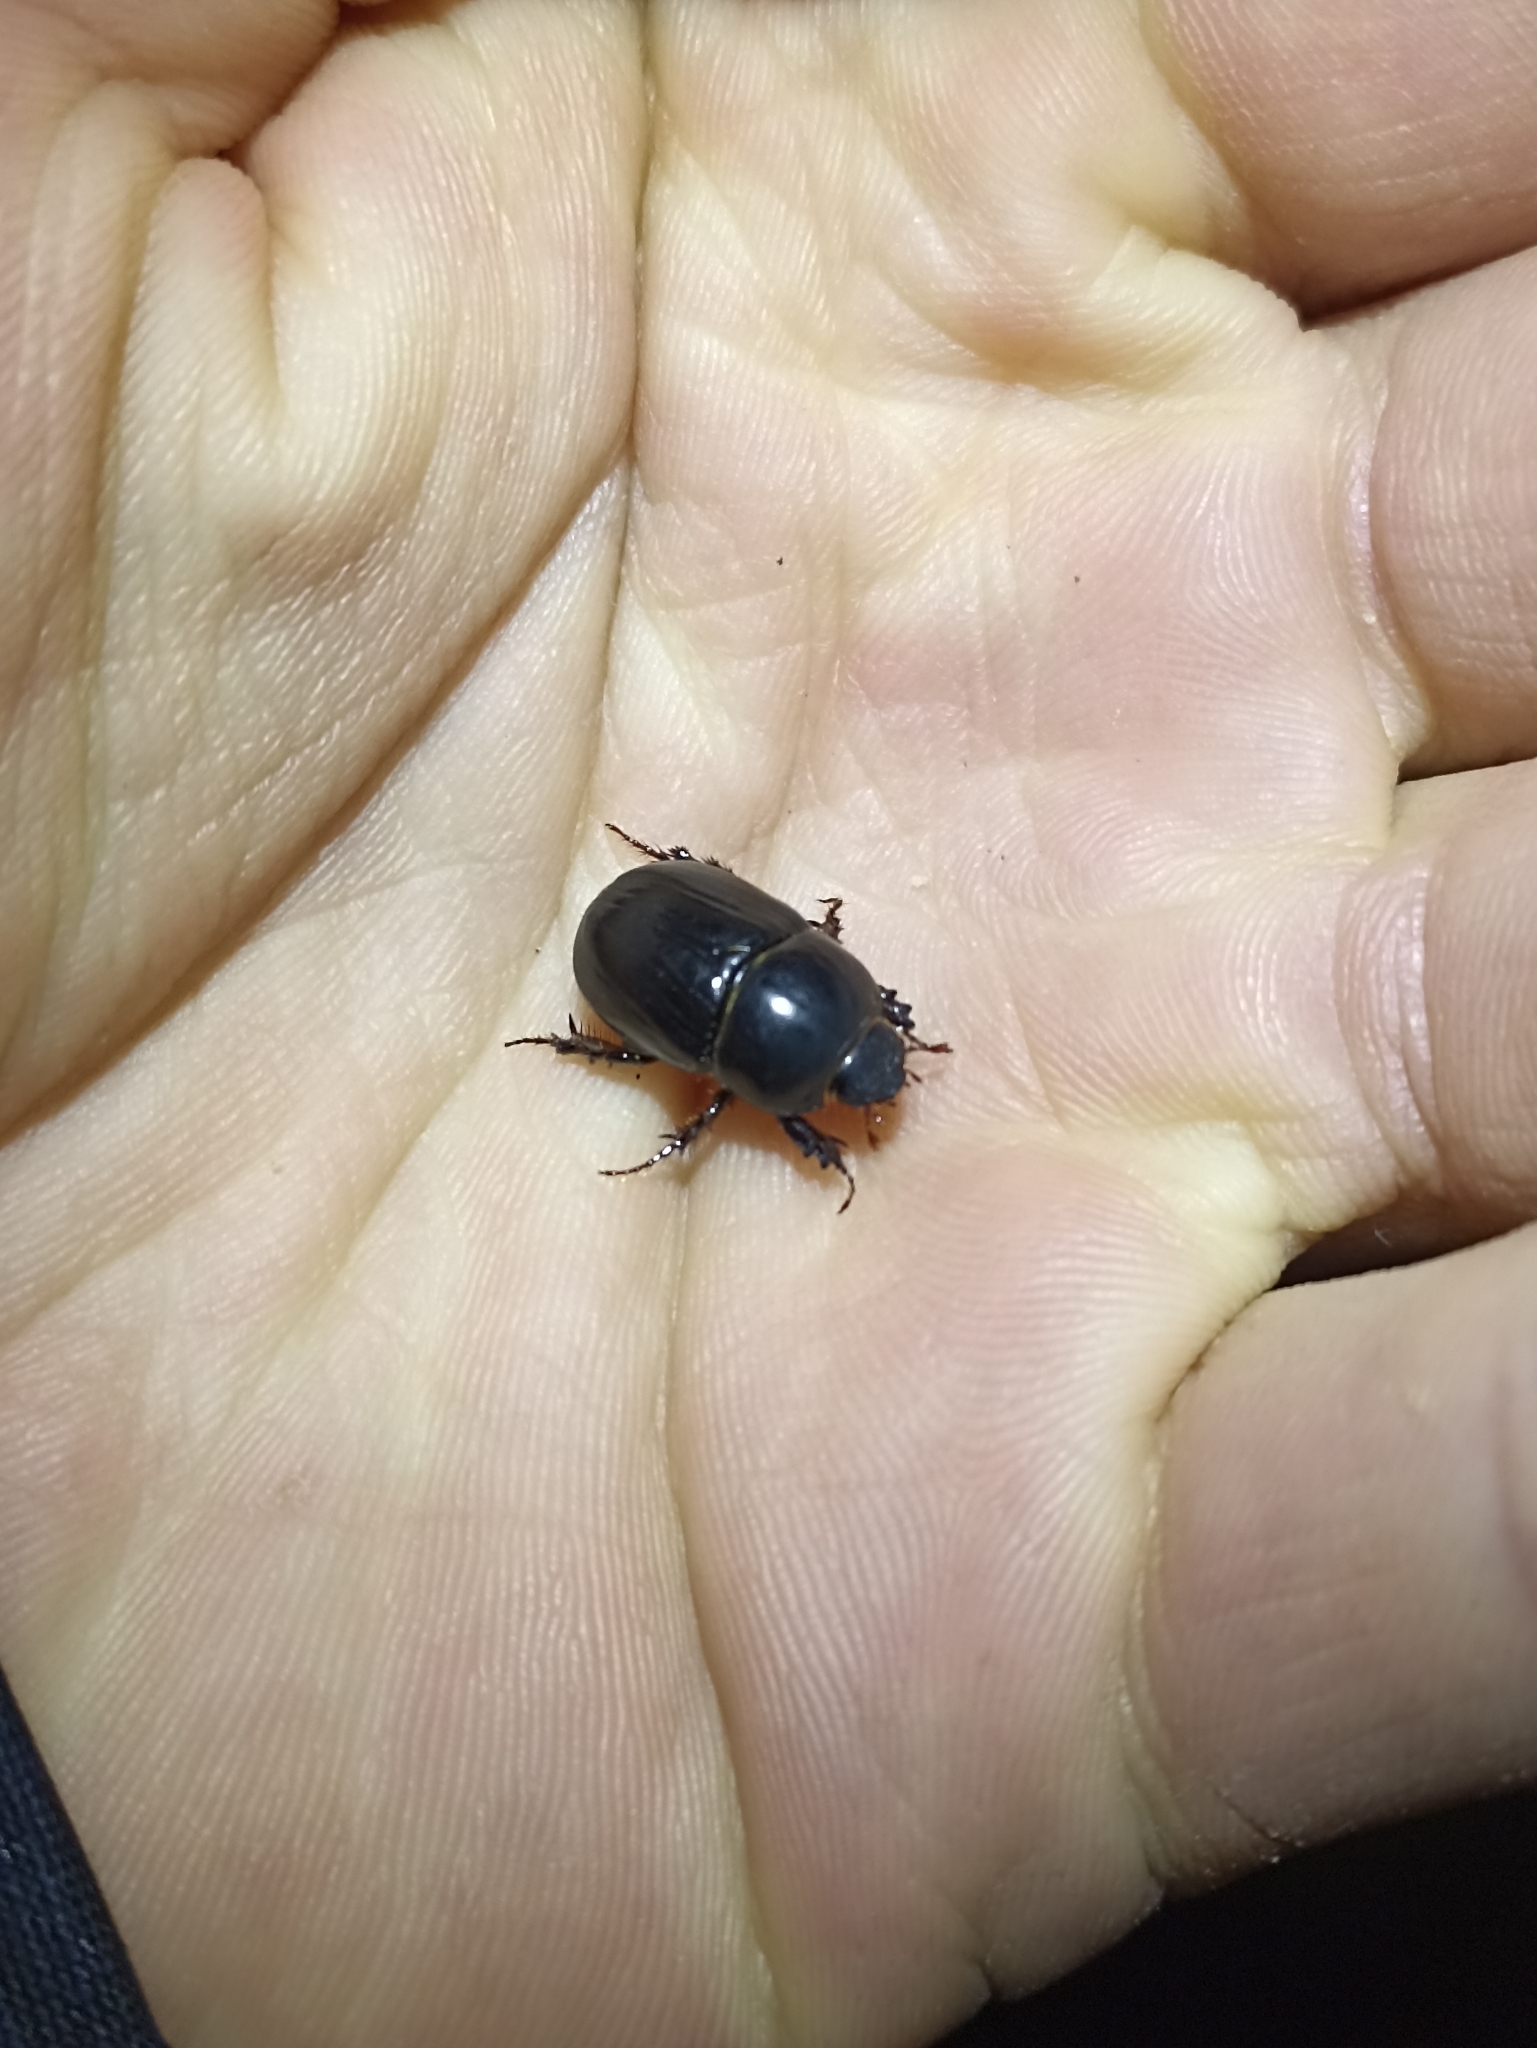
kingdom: Animalia
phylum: Arthropoda
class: Insecta
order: Coleoptera
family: Scarabaeidae
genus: Heteronychus
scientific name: Heteronychus arator
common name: African black beetle
